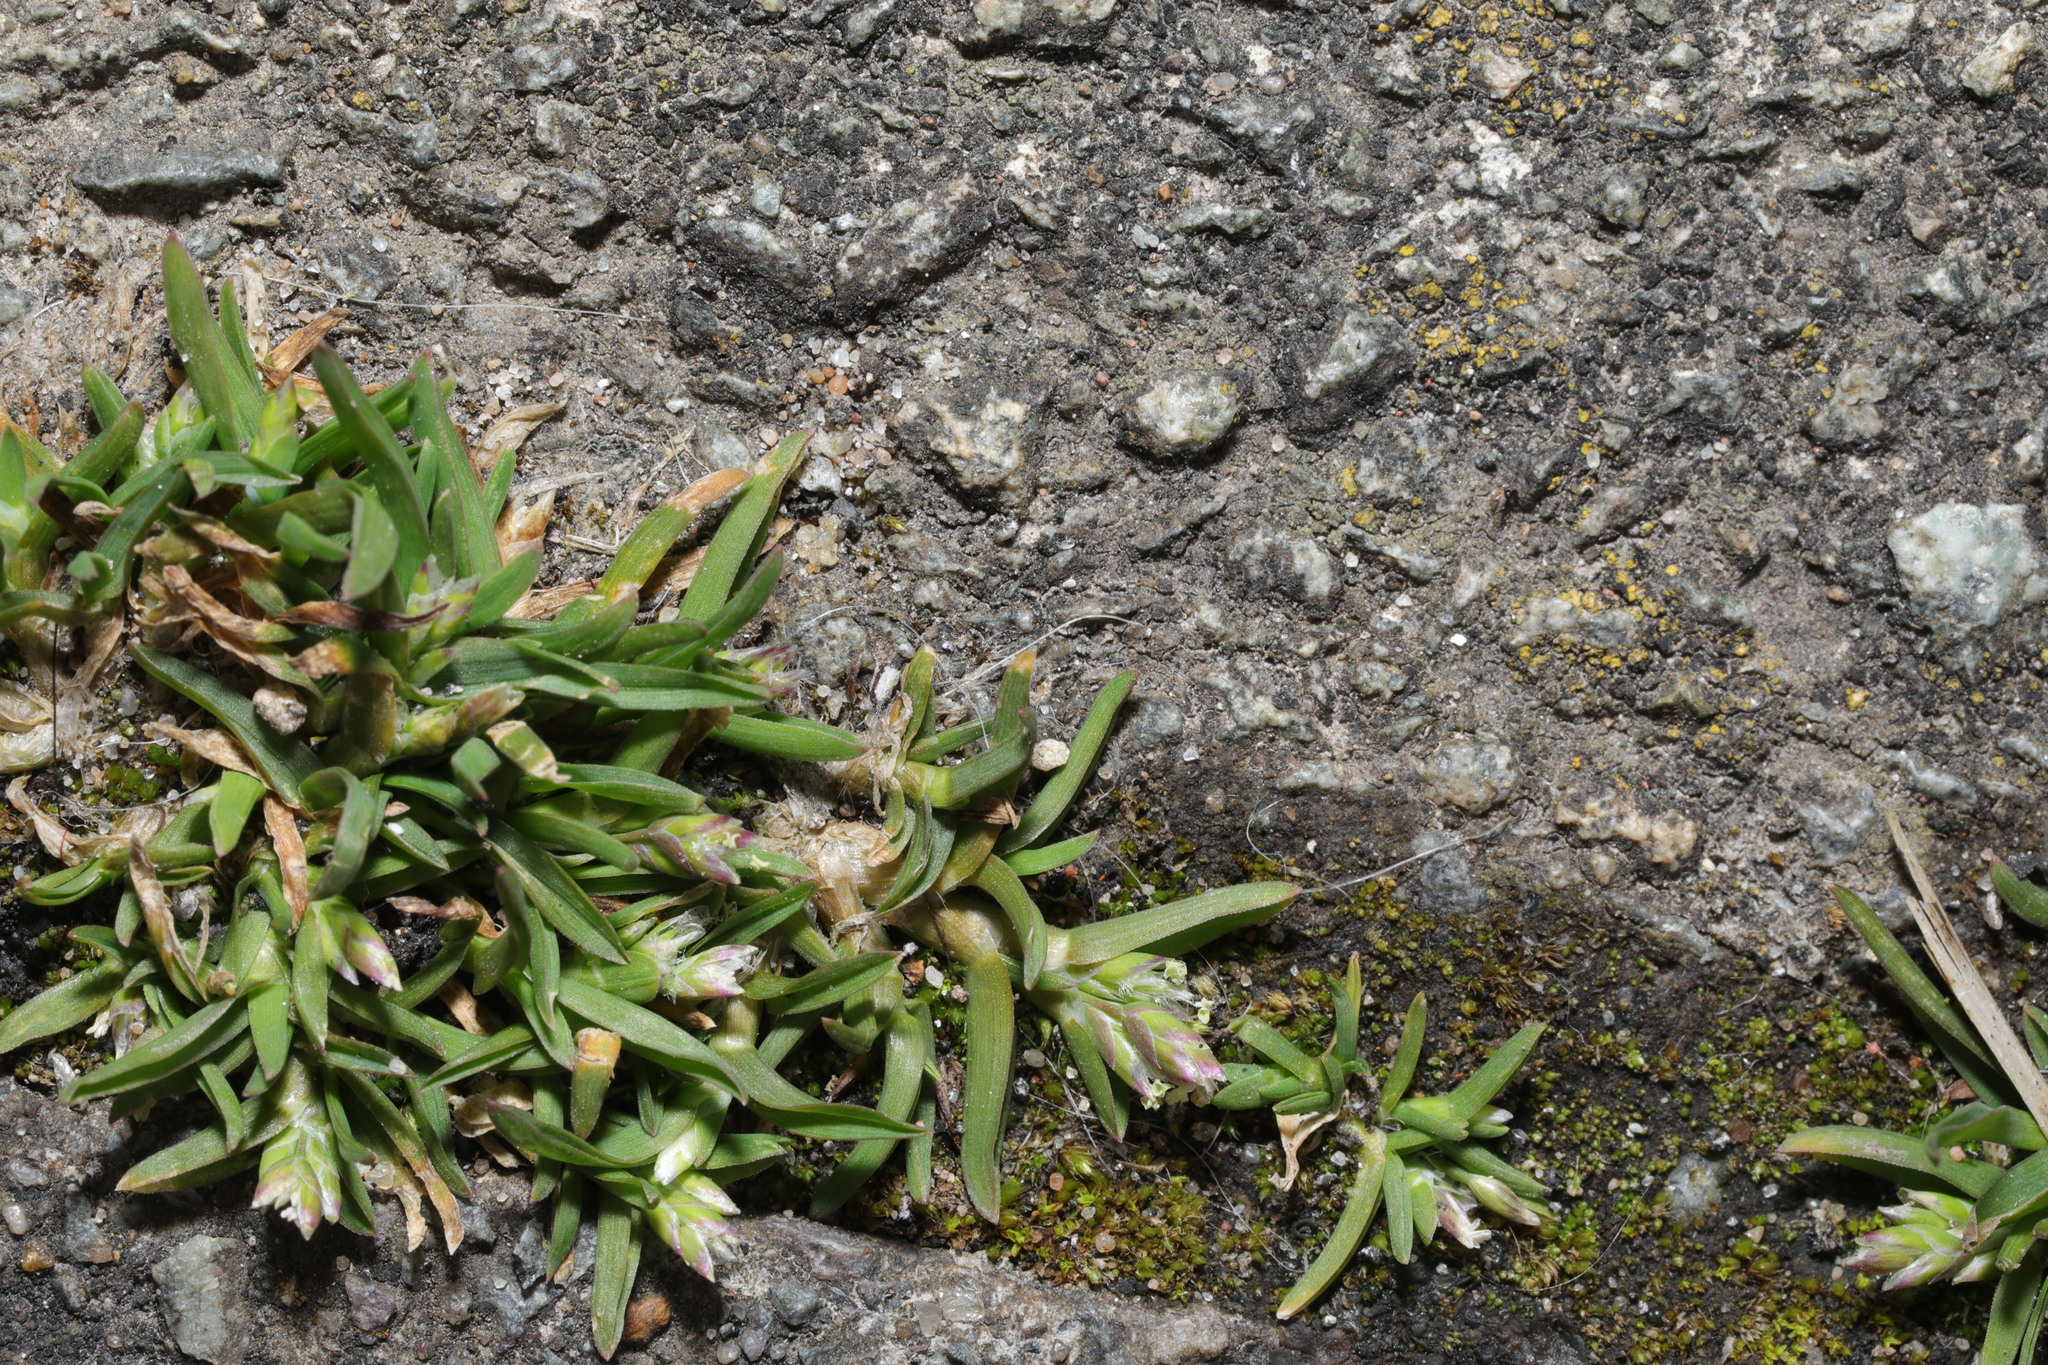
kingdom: Plantae
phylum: Tracheophyta
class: Liliopsida
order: Poales
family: Poaceae
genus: Poa
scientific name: Poa annua
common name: Annual bluegrass
